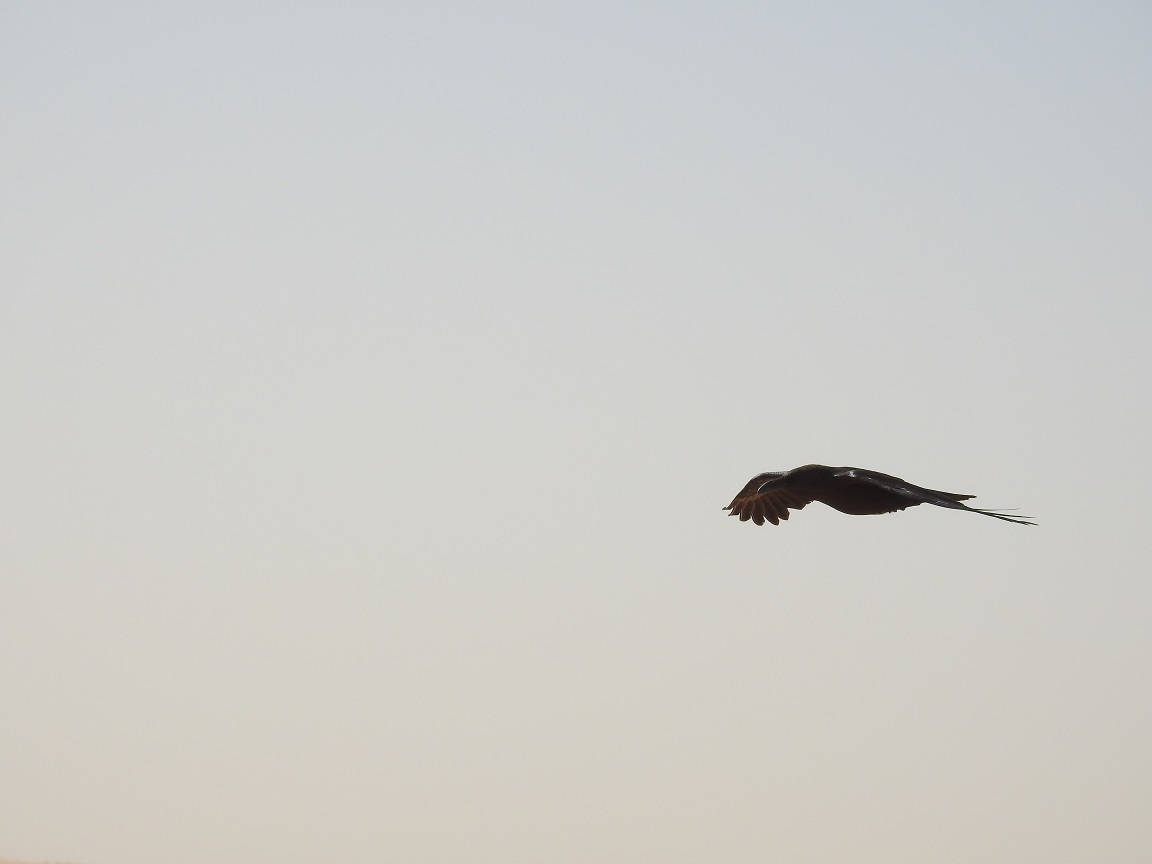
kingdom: Animalia
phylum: Chordata
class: Aves
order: Passeriformes
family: Corvidae
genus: Corvus
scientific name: Corvus ruficollis
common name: Brown-necked raven
